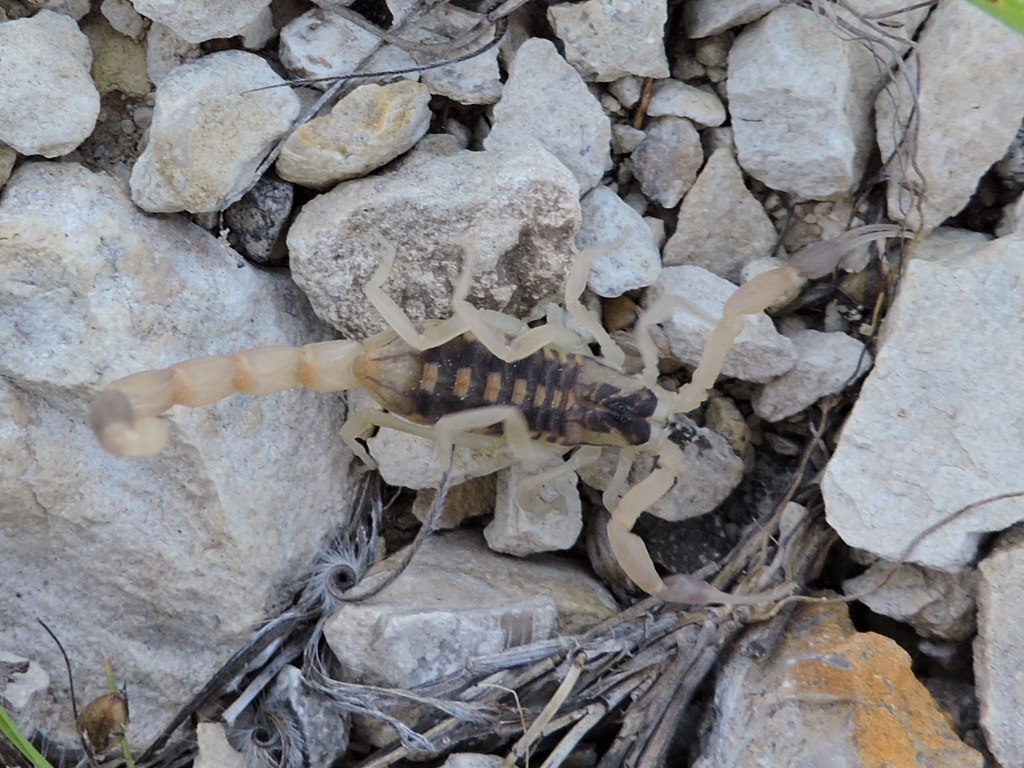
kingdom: Animalia
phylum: Arthropoda
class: Arachnida
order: Scorpiones
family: Buthidae
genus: Centruroides
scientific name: Centruroides vittatus
